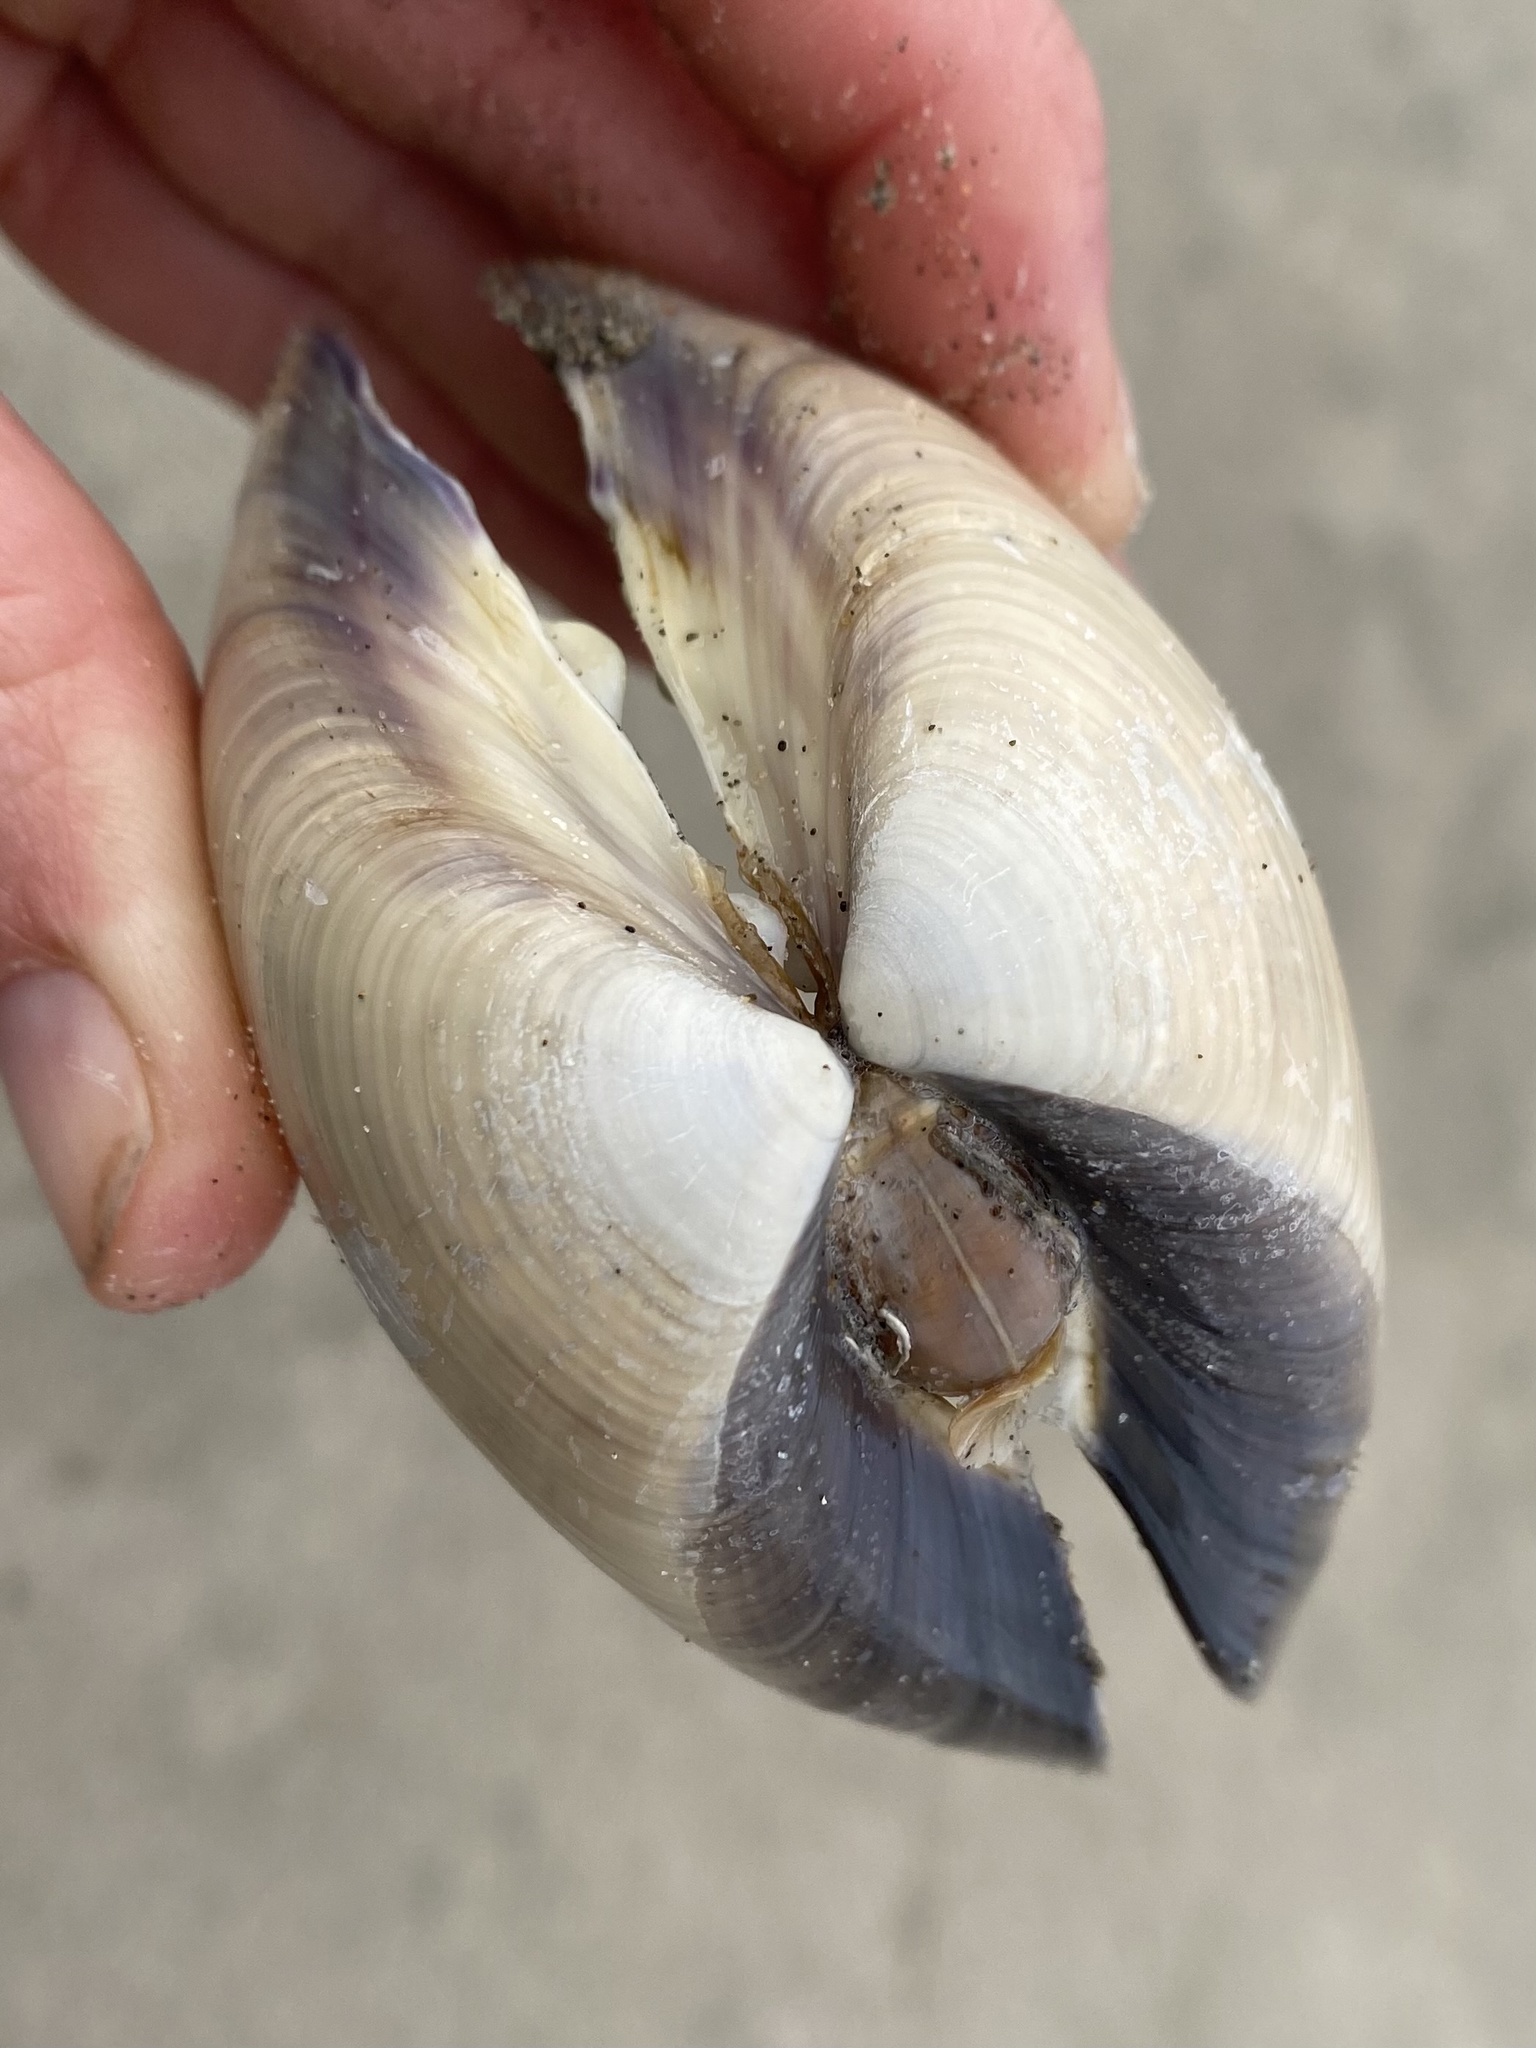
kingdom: Animalia
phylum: Mollusca
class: Bivalvia
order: Venerida
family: Veneridae
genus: Tivela
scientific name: Tivela stultorum
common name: Pismo clam
